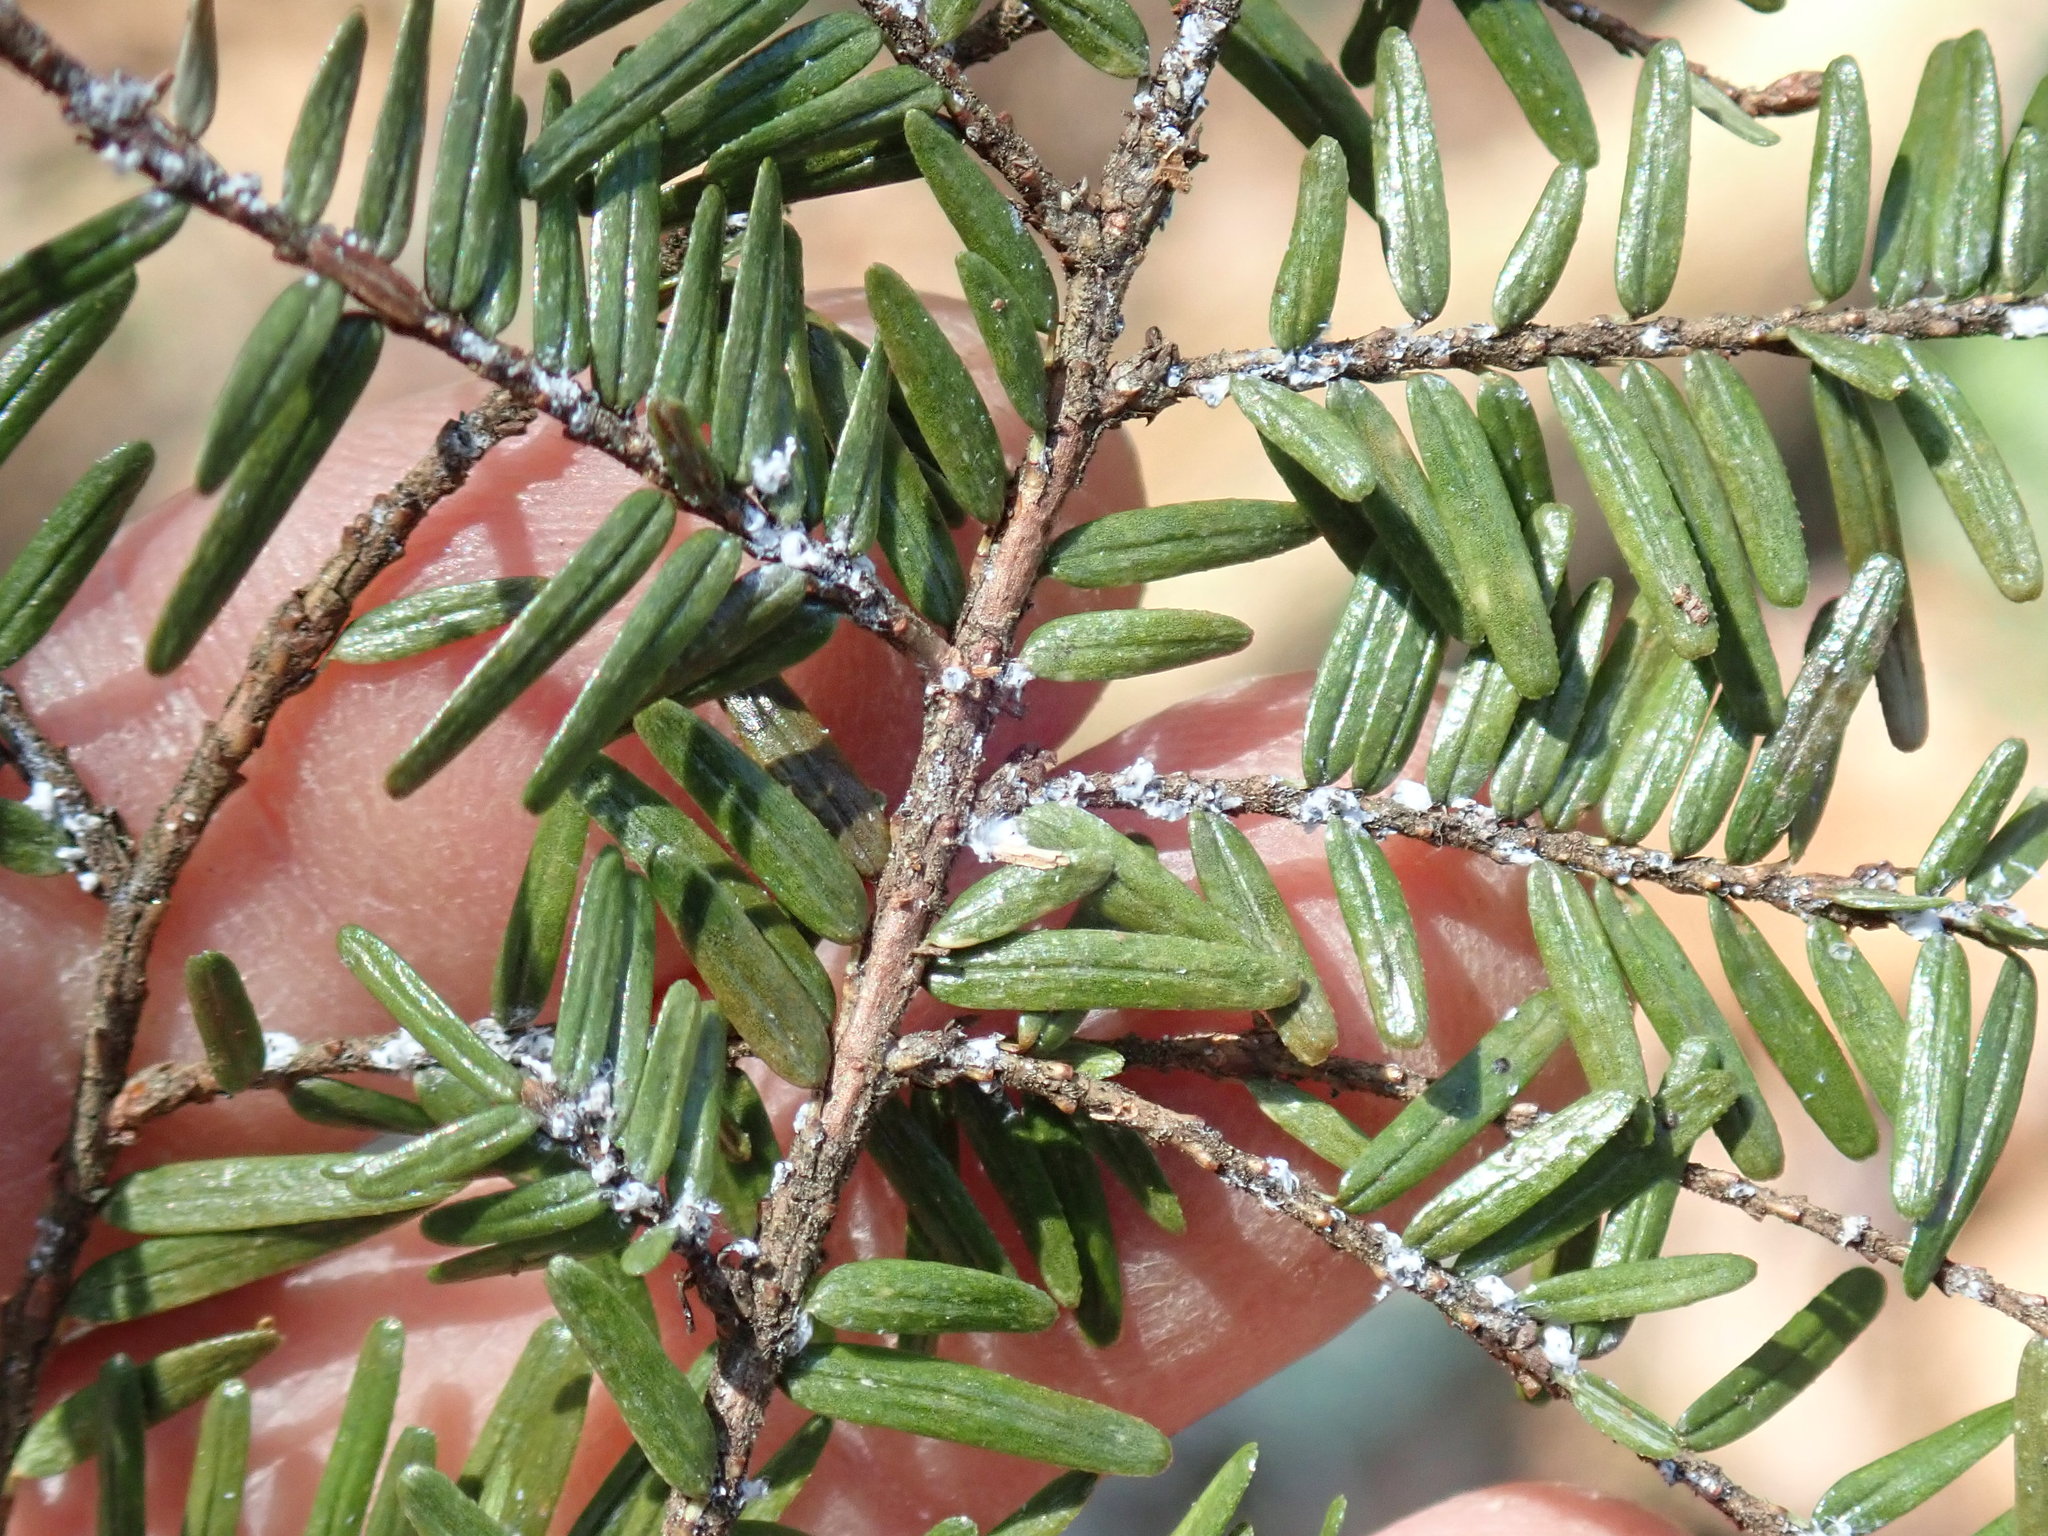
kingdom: Animalia
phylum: Arthropoda
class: Insecta
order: Hemiptera
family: Adelgidae
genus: Adelges
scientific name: Adelges tsugae
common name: Hemlock woolly adelgid
